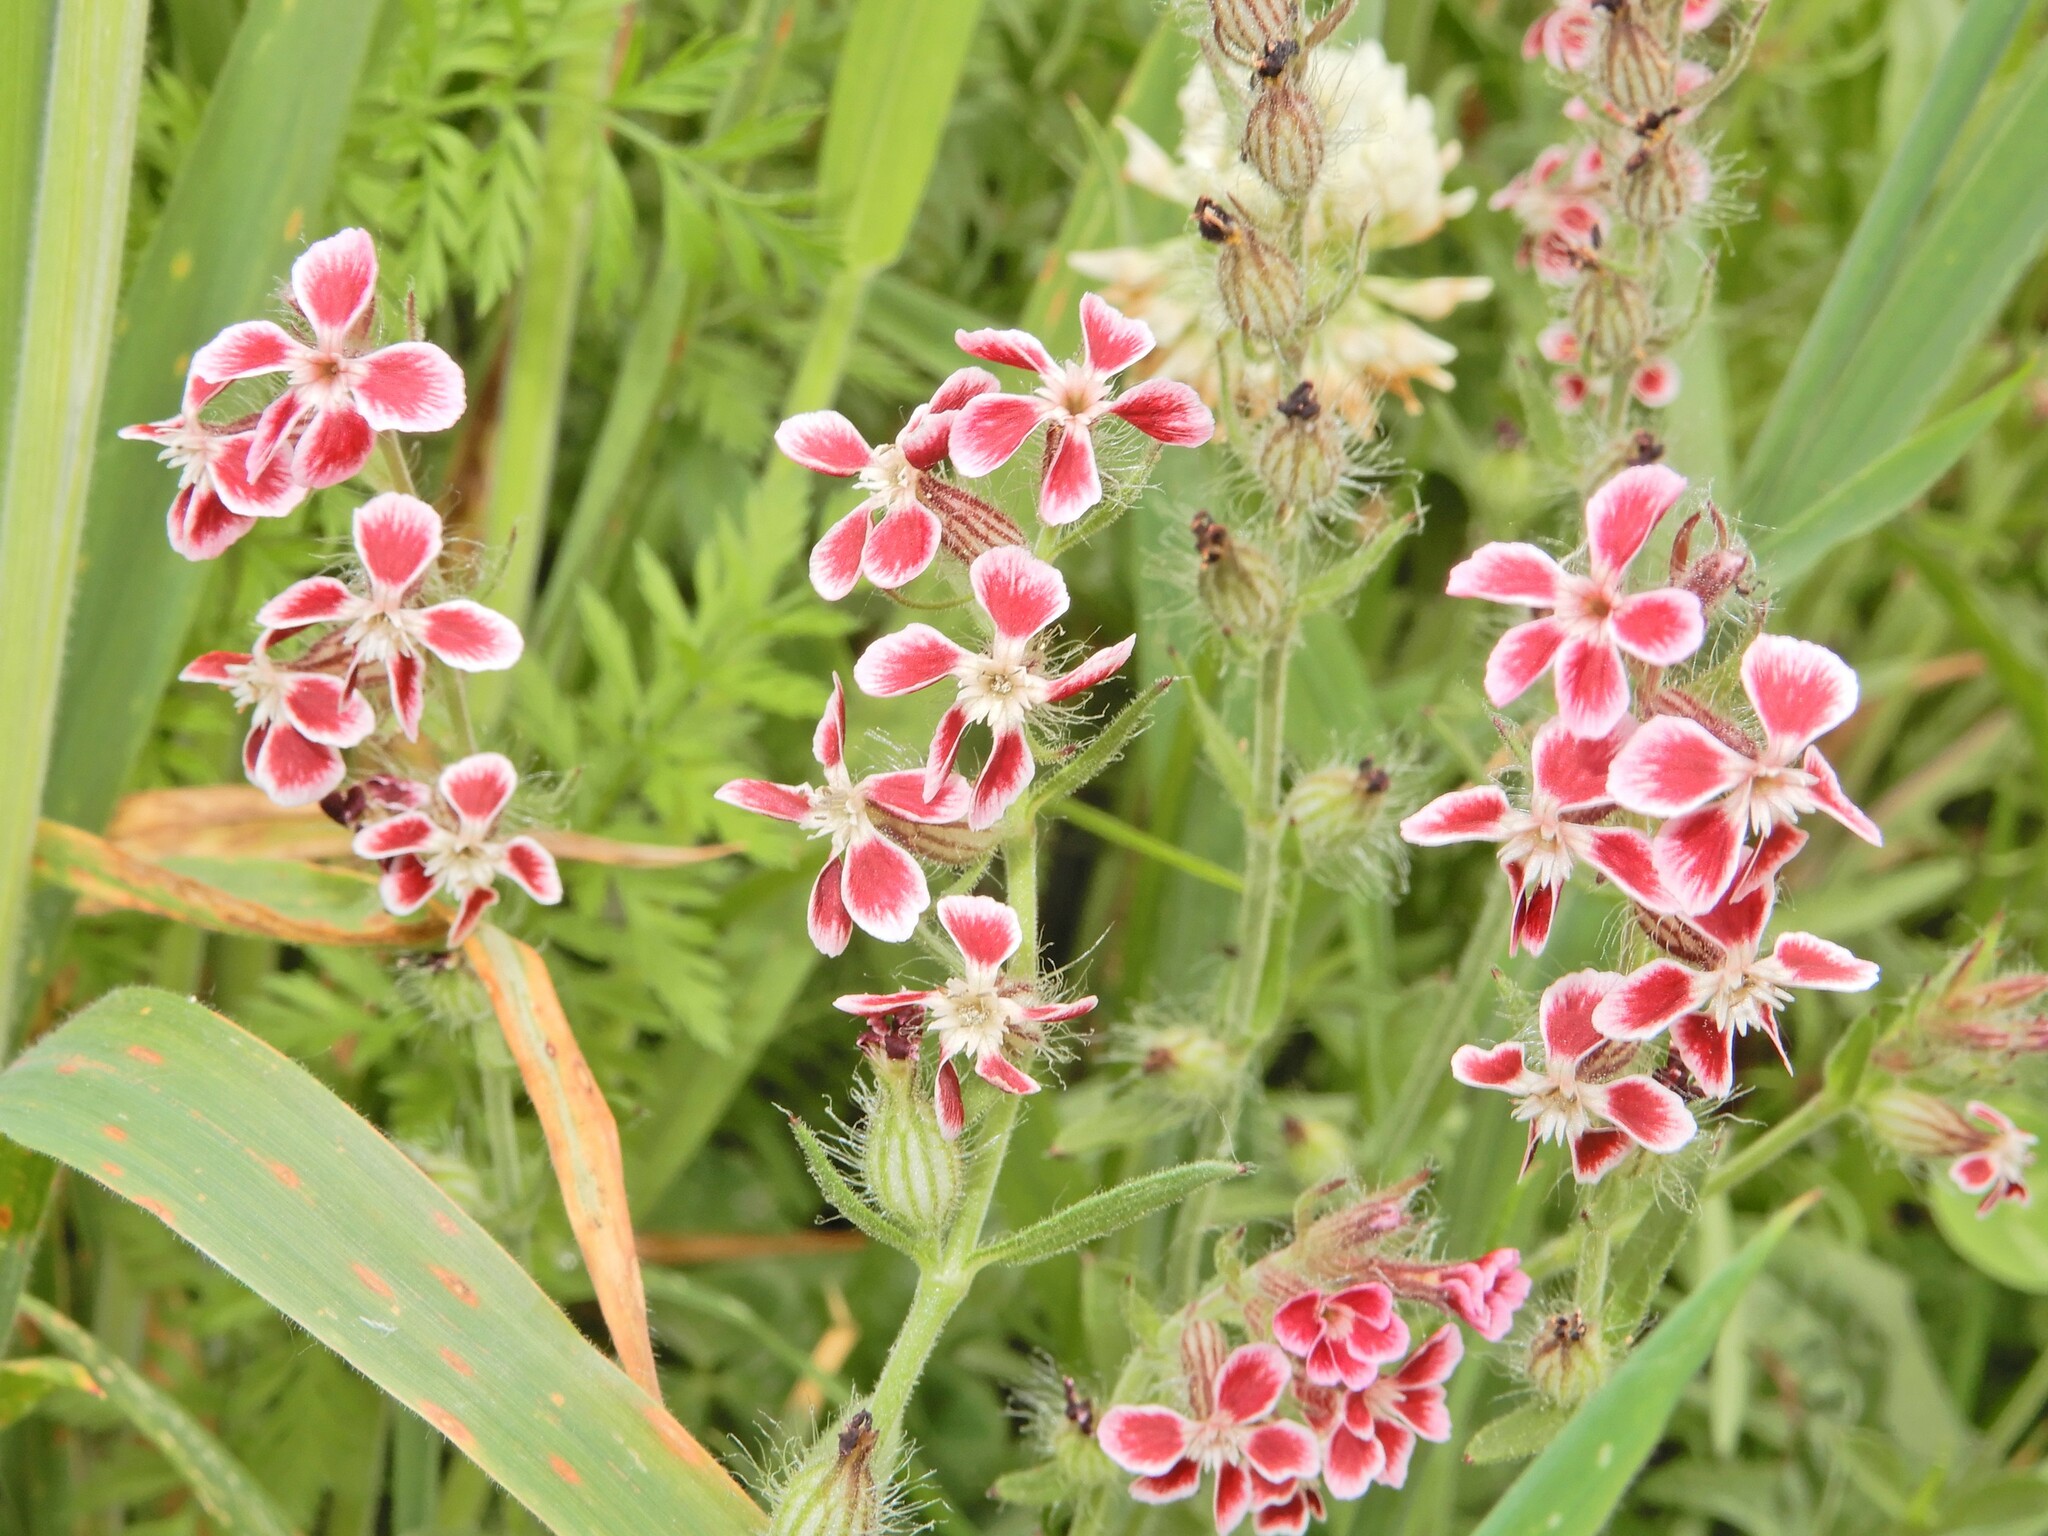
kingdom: Plantae
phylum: Tracheophyta
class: Magnoliopsida
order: Caryophyllales
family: Caryophyllaceae
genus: Silene
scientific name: Silene gallica
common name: Small-flowered catchfly
